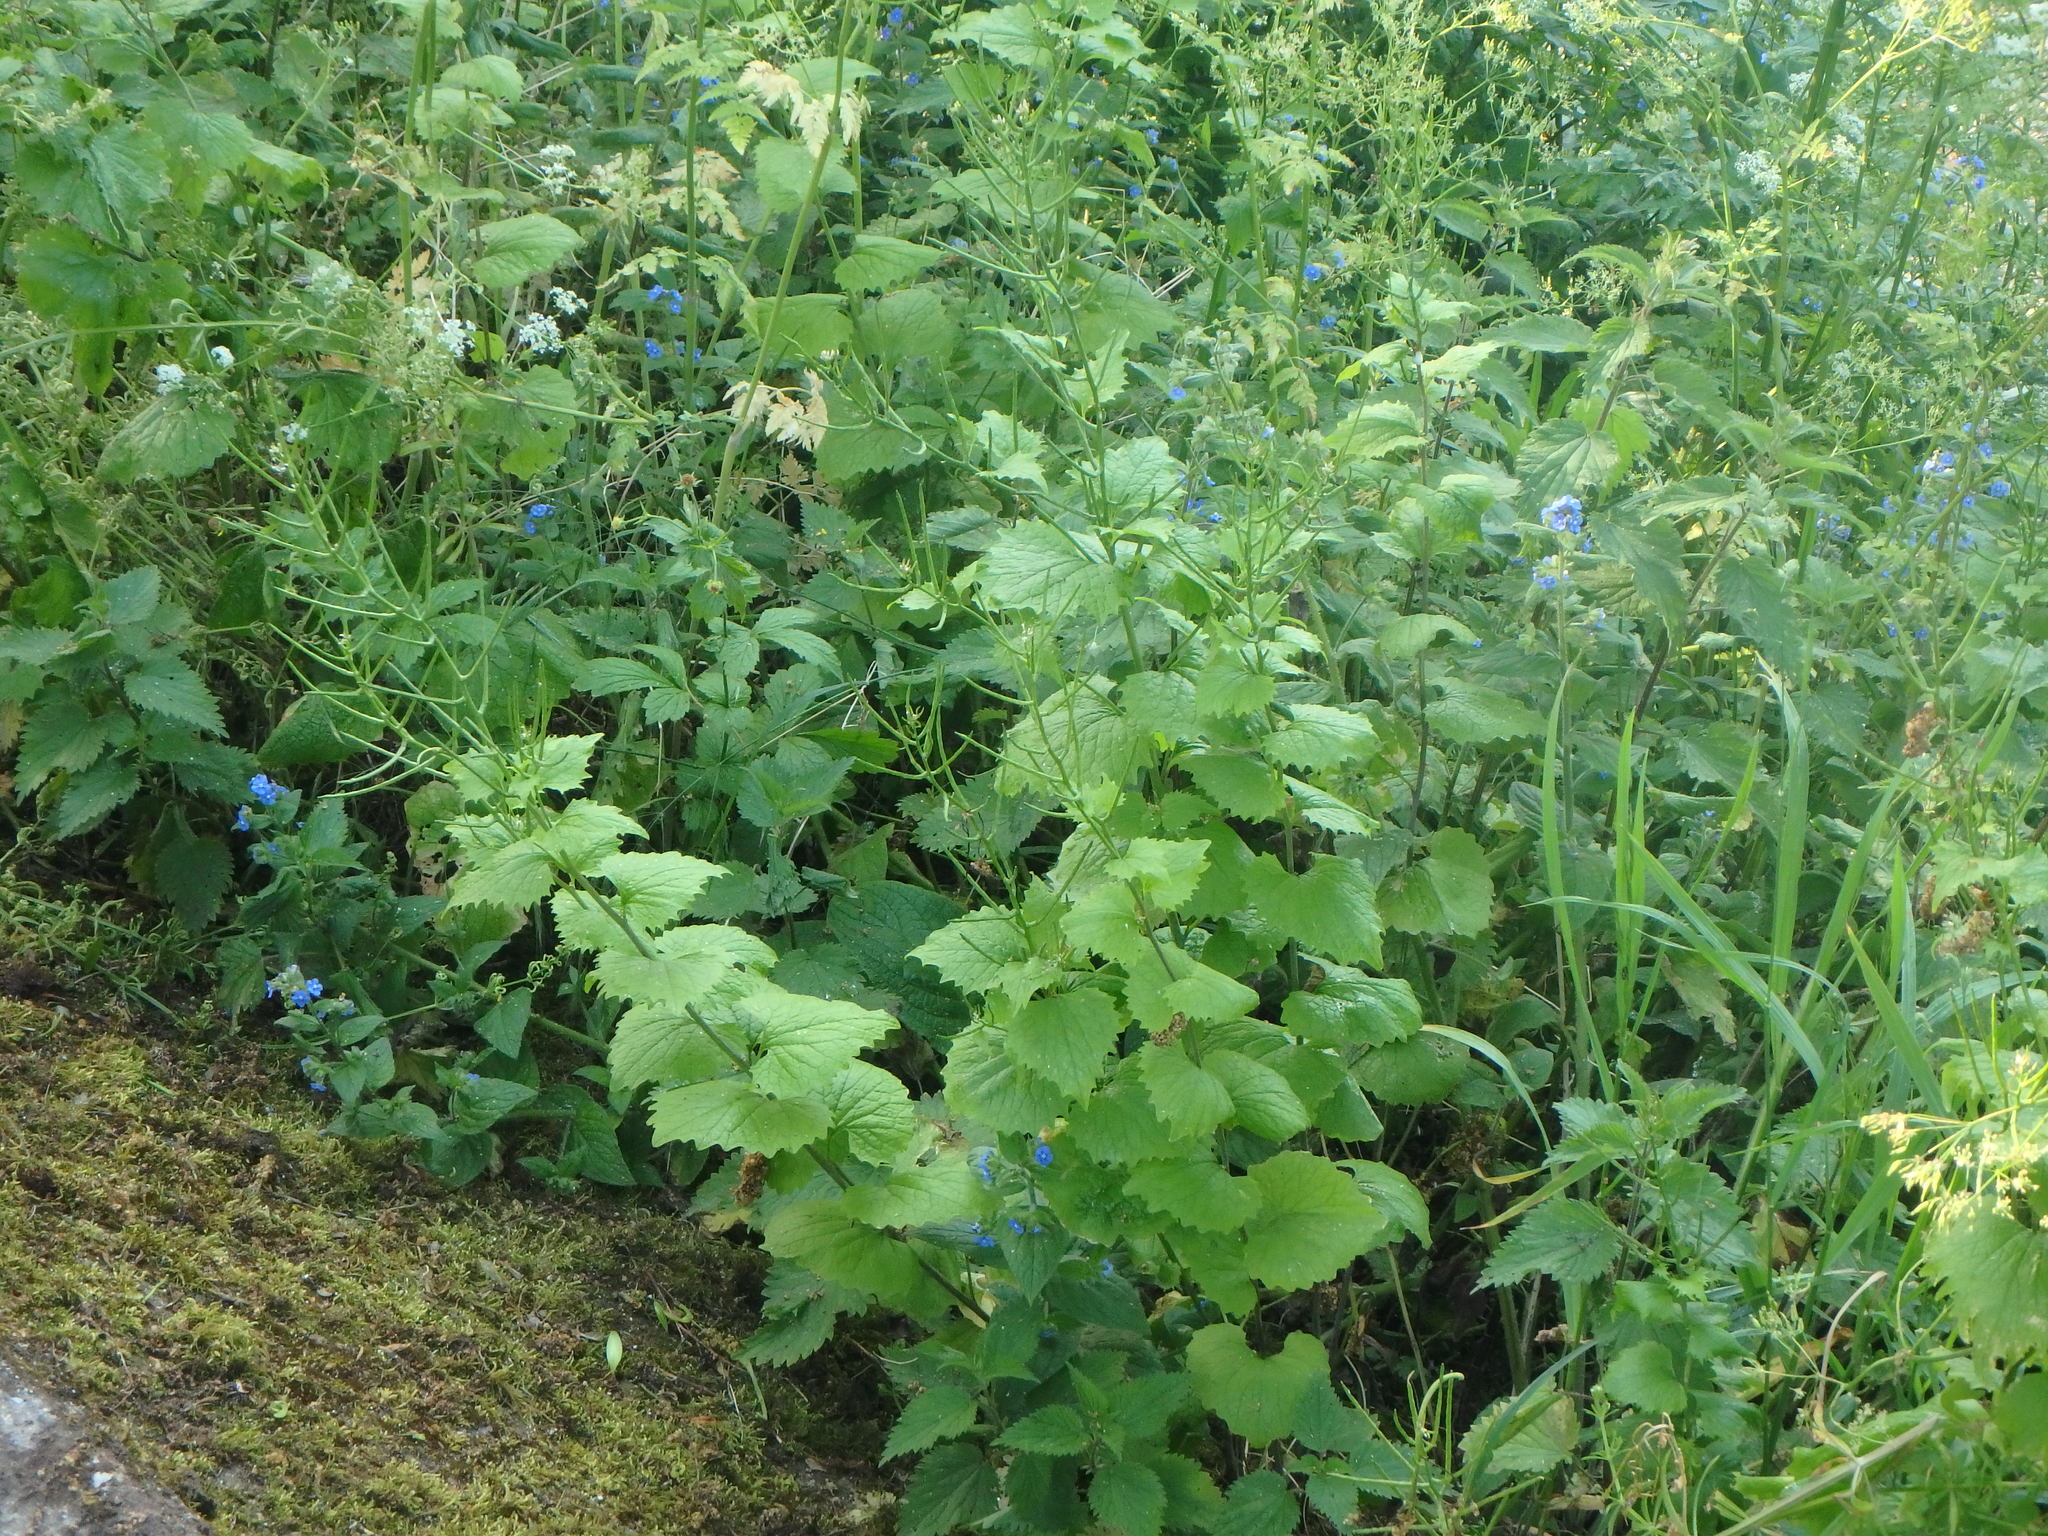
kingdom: Plantae
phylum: Tracheophyta
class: Magnoliopsida
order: Brassicales
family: Brassicaceae
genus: Alliaria
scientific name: Alliaria petiolata
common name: Garlic mustard
